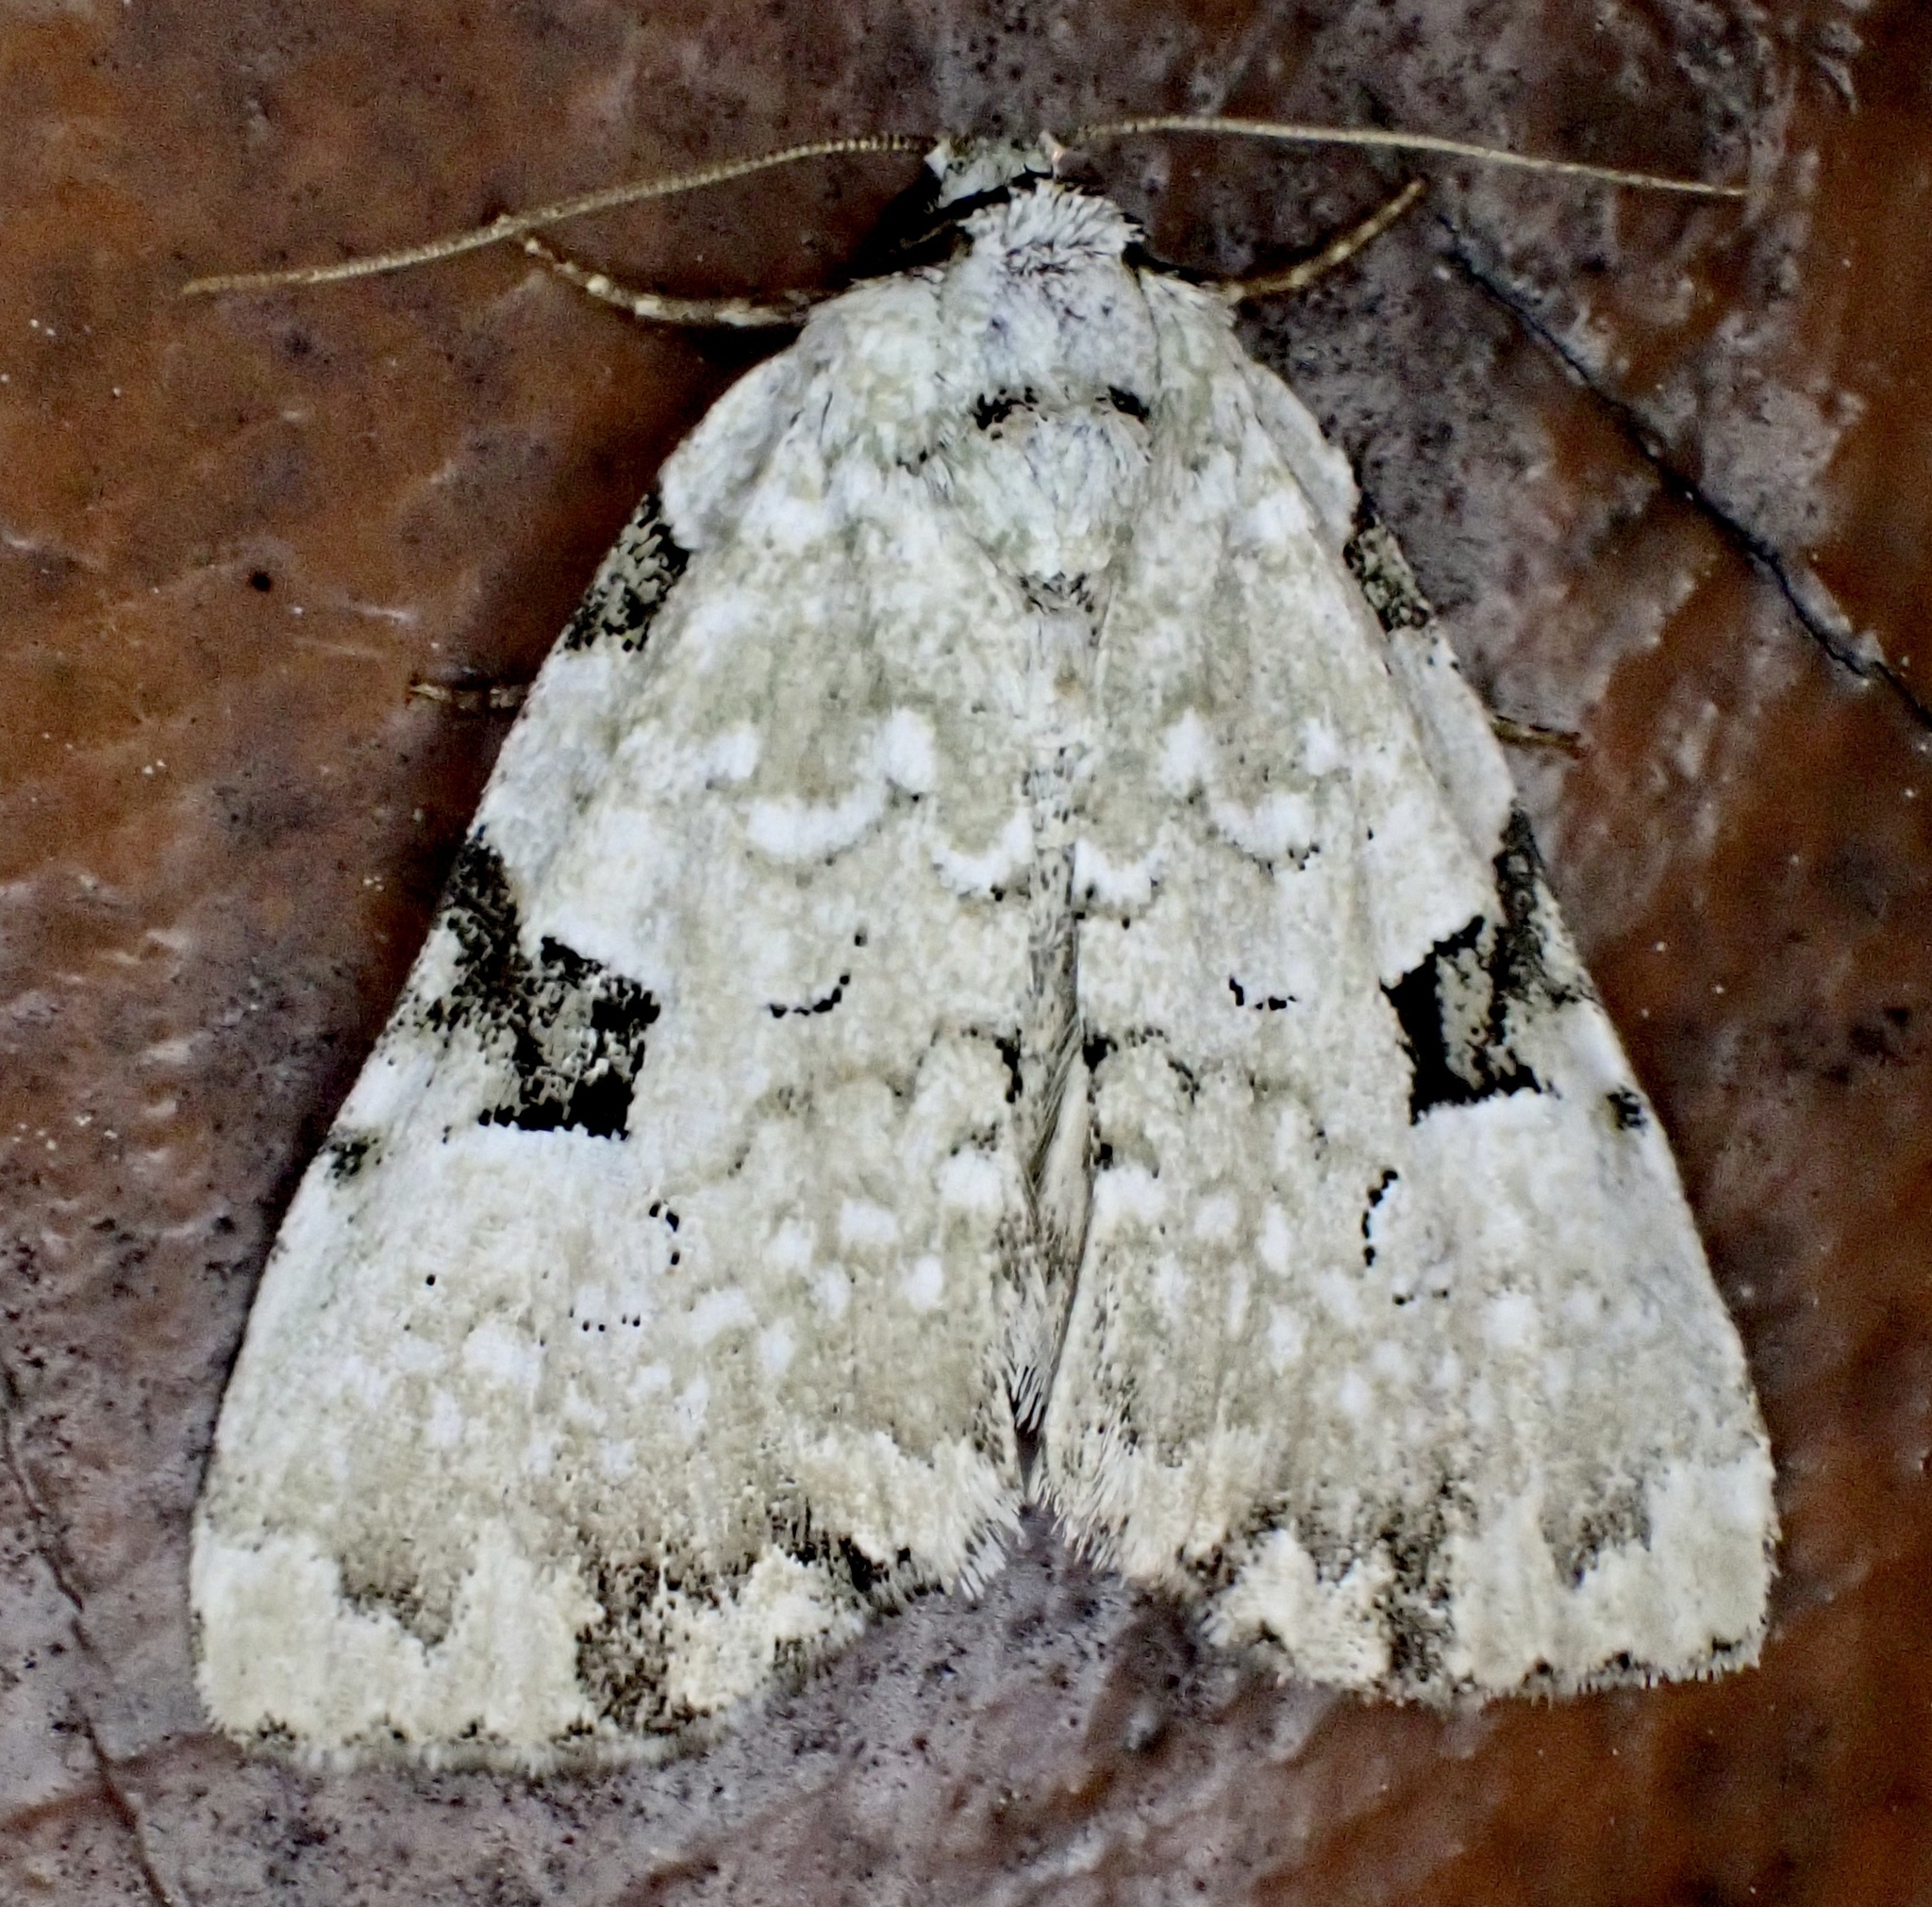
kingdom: Animalia
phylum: Arthropoda
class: Insecta
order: Lepidoptera
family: Noctuidae
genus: Leuconycta
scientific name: Leuconycta diphteroides
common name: Green leuconycta moth
